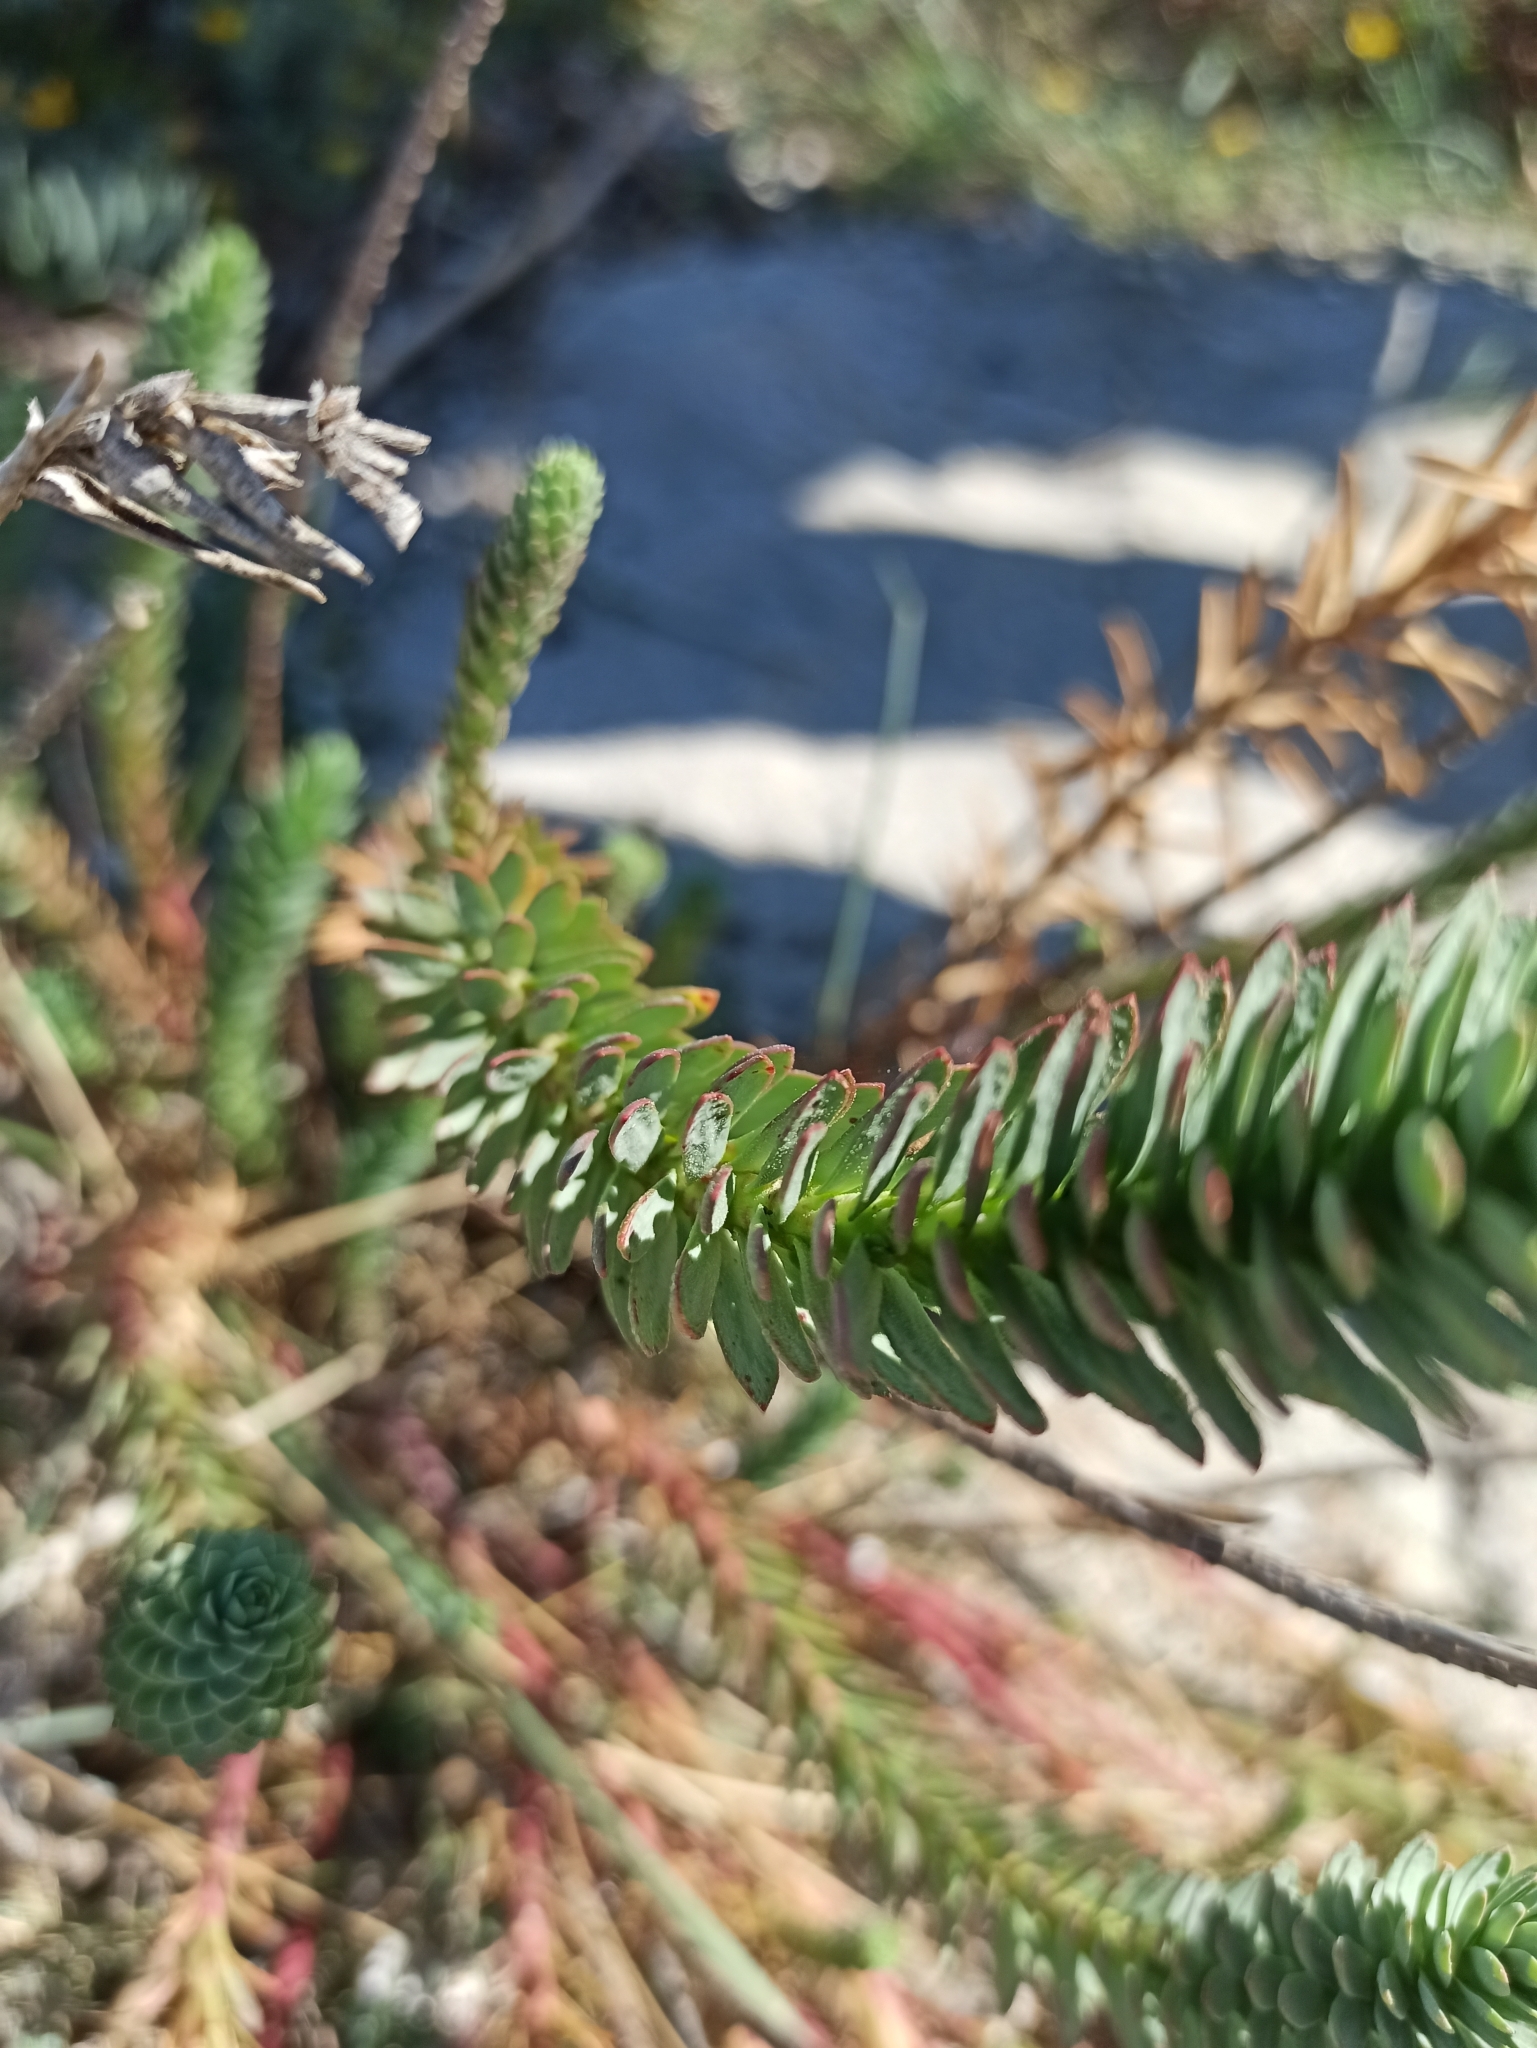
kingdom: Plantae
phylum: Tracheophyta
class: Magnoliopsida
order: Malpighiales
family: Euphorbiaceae
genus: Euphorbia
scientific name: Euphorbia paralias
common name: Sea spurge
